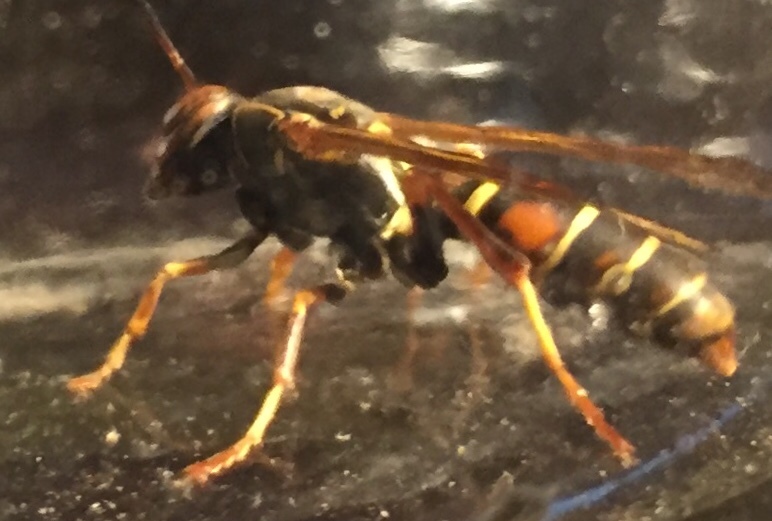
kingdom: Animalia
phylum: Arthropoda
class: Insecta
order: Hymenoptera
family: Eumenidae
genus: Polistes
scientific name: Polistes fuscatus
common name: Dark paper wasp
